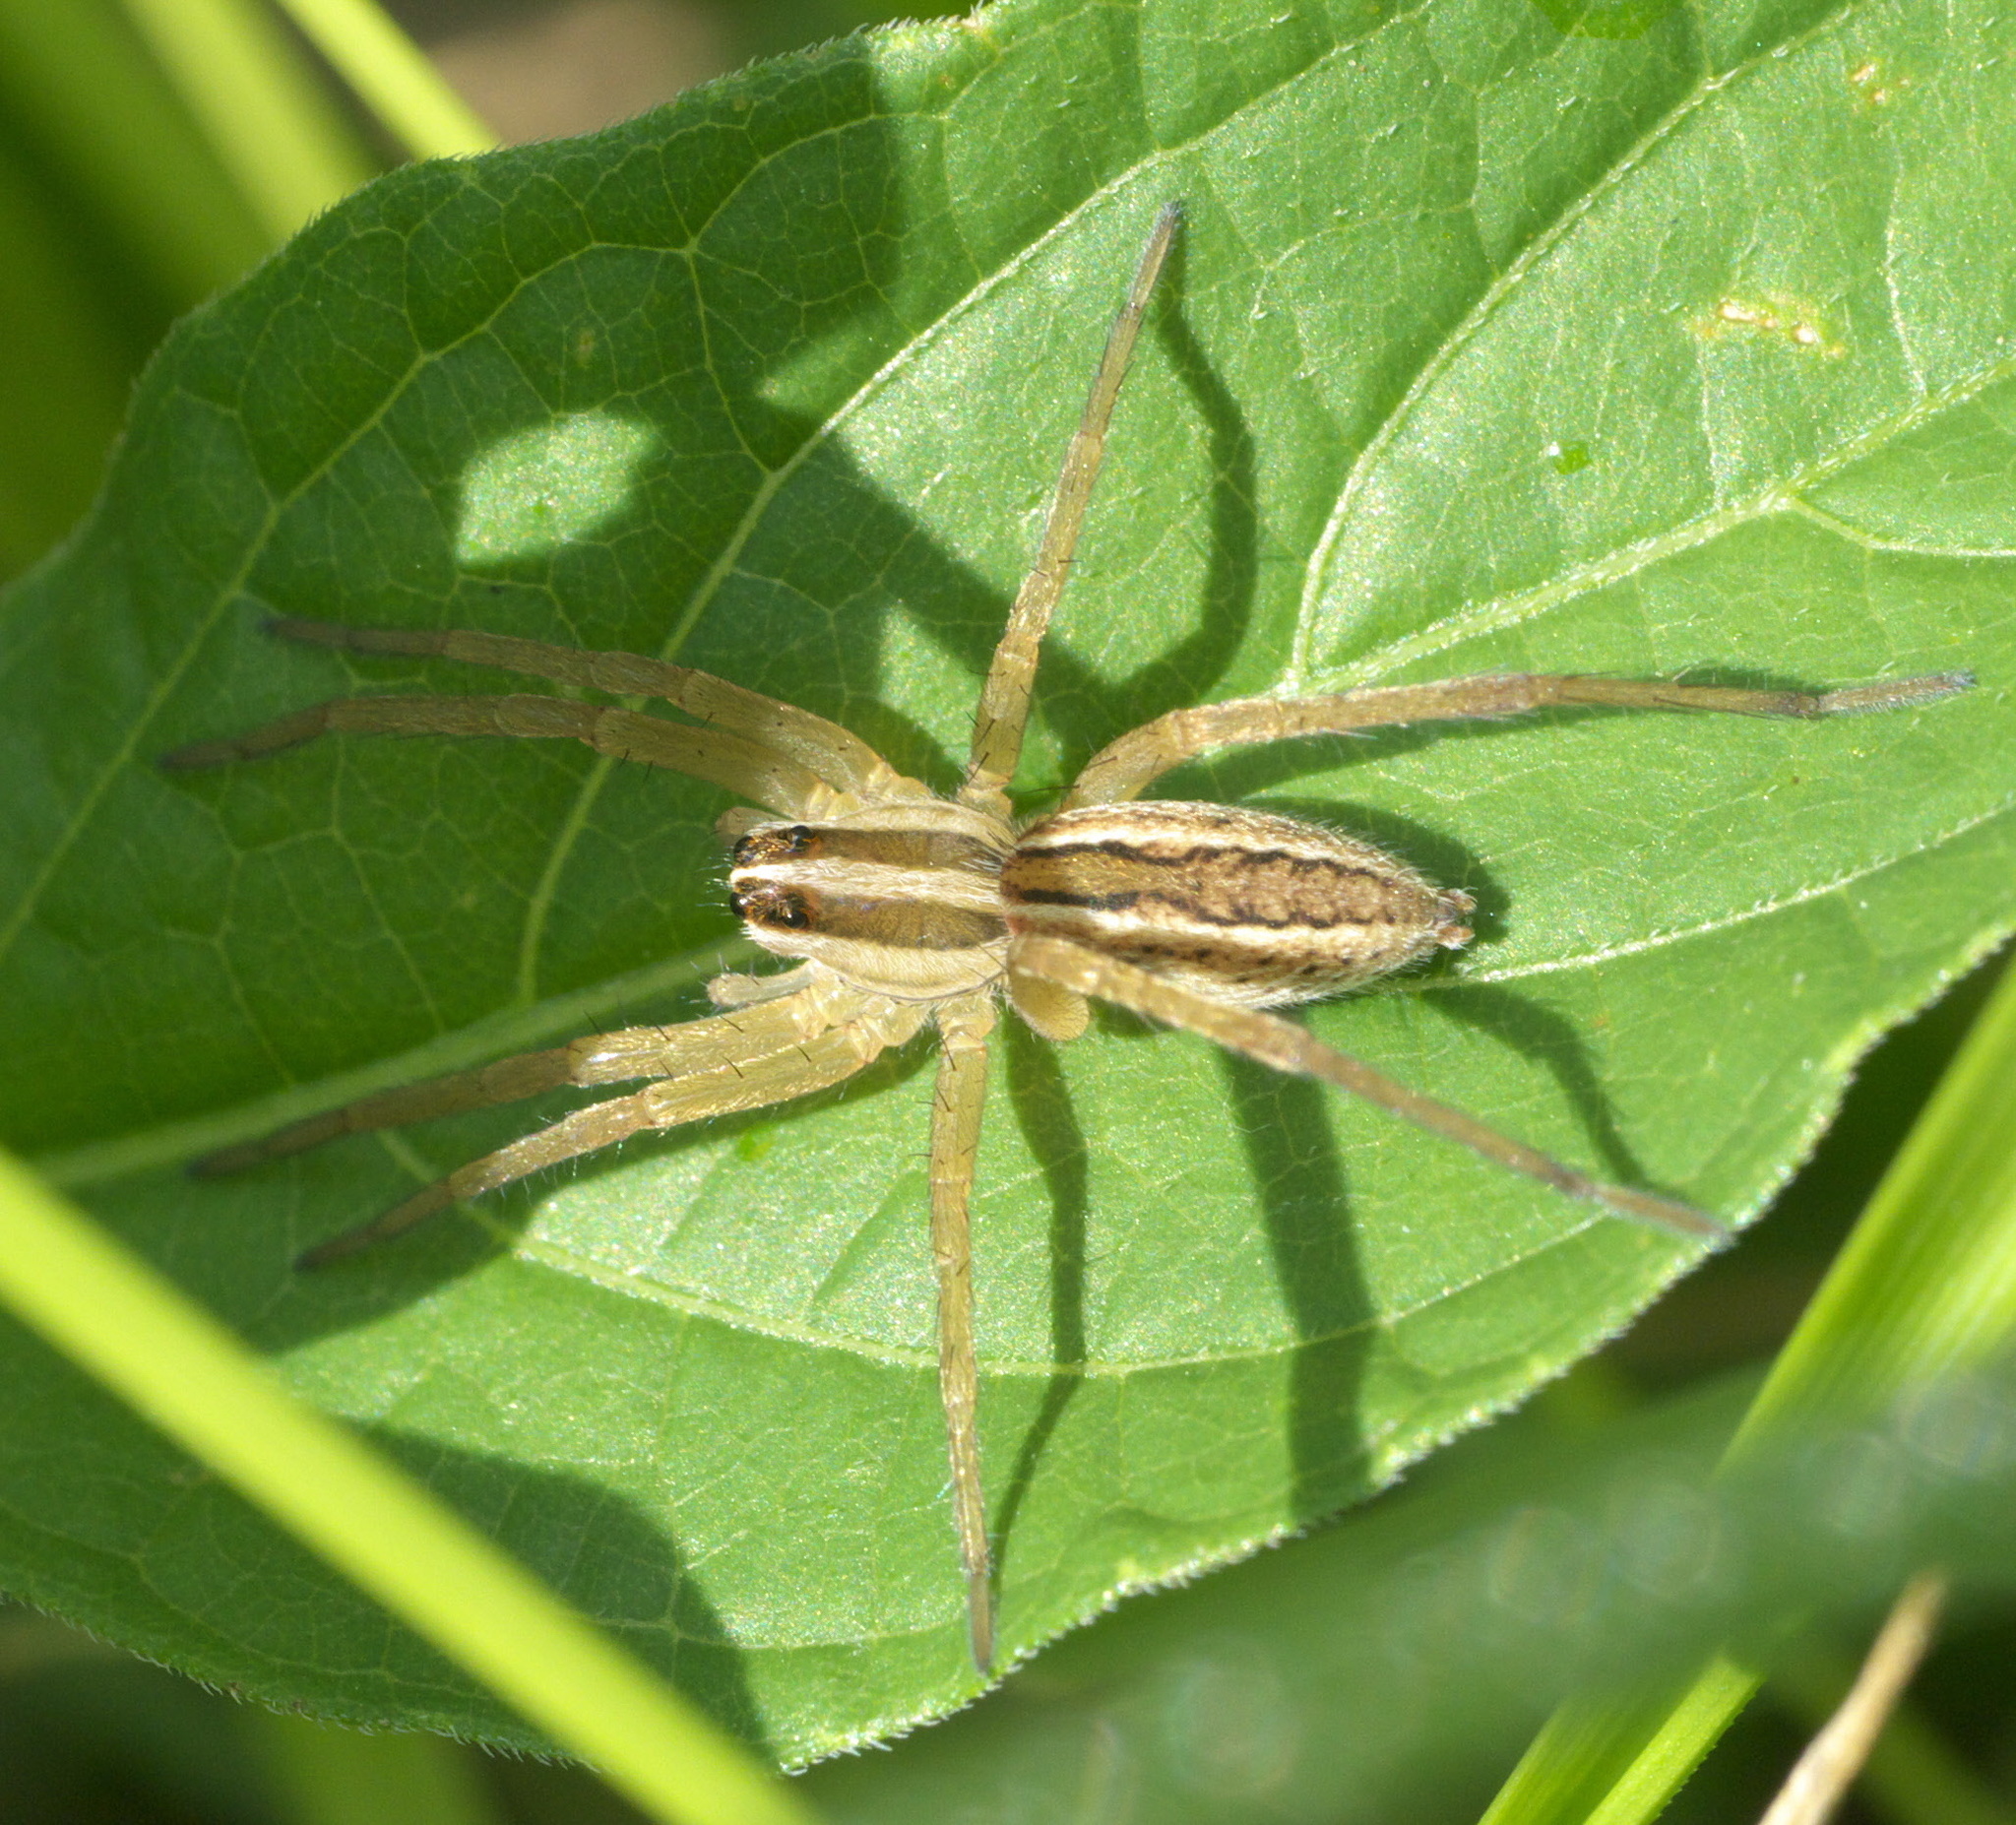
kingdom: Animalia
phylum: Arthropoda
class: Arachnida
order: Araneae
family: Lycosidae
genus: Rabidosa
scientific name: Rabidosa rabida
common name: Rabid wolf spider
